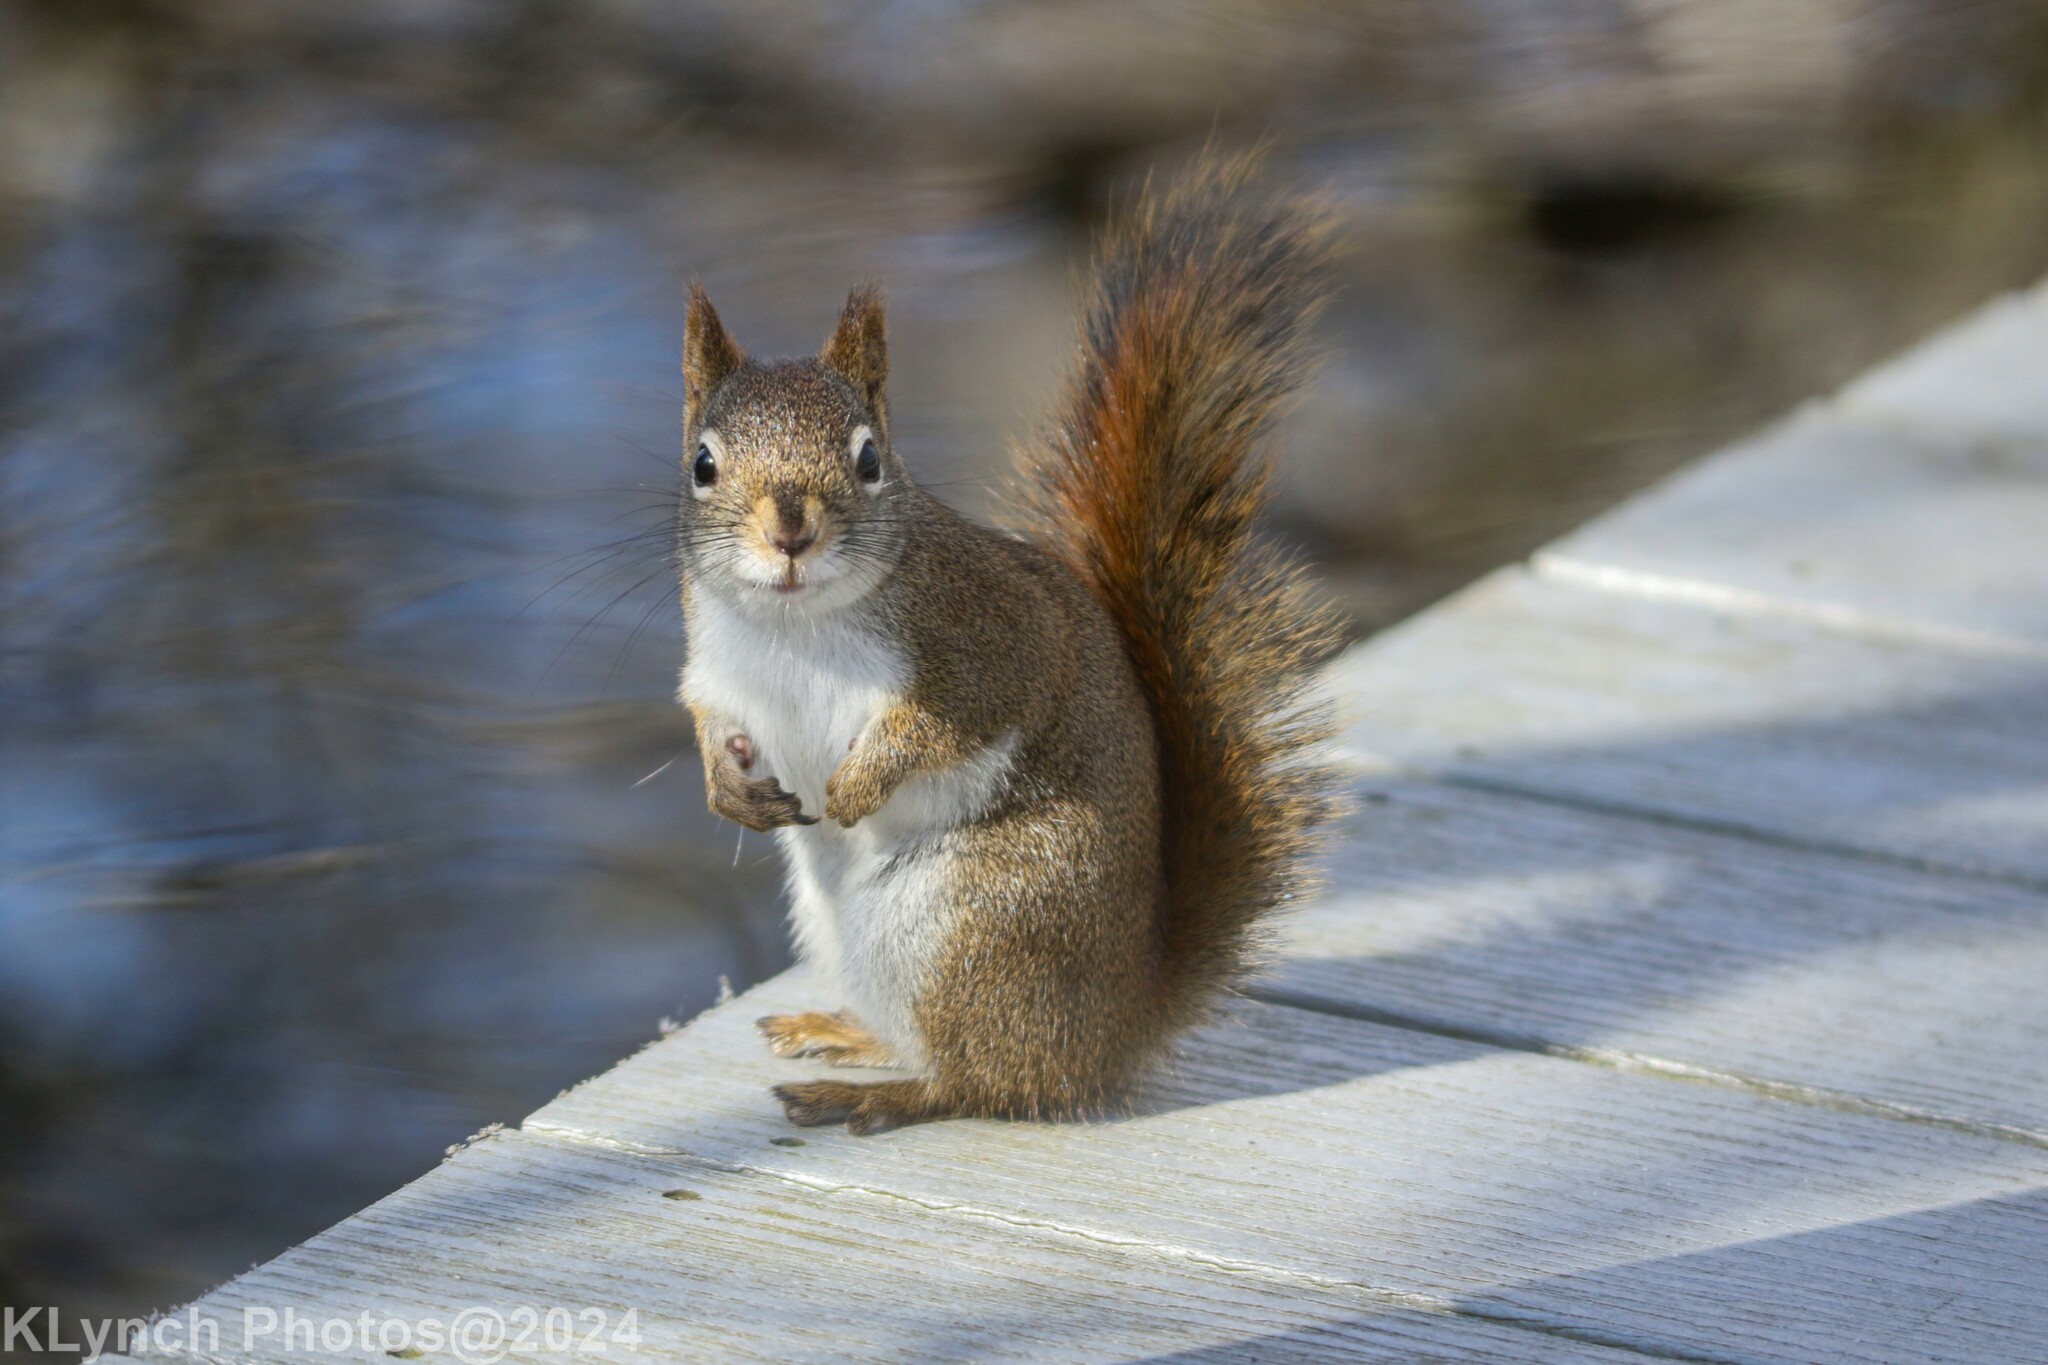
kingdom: Animalia
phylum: Chordata
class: Mammalia
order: Rodentia
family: Sciuridae
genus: Tamiasciurus
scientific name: Tamiasciurus hudsonicus
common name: Red squirrel
